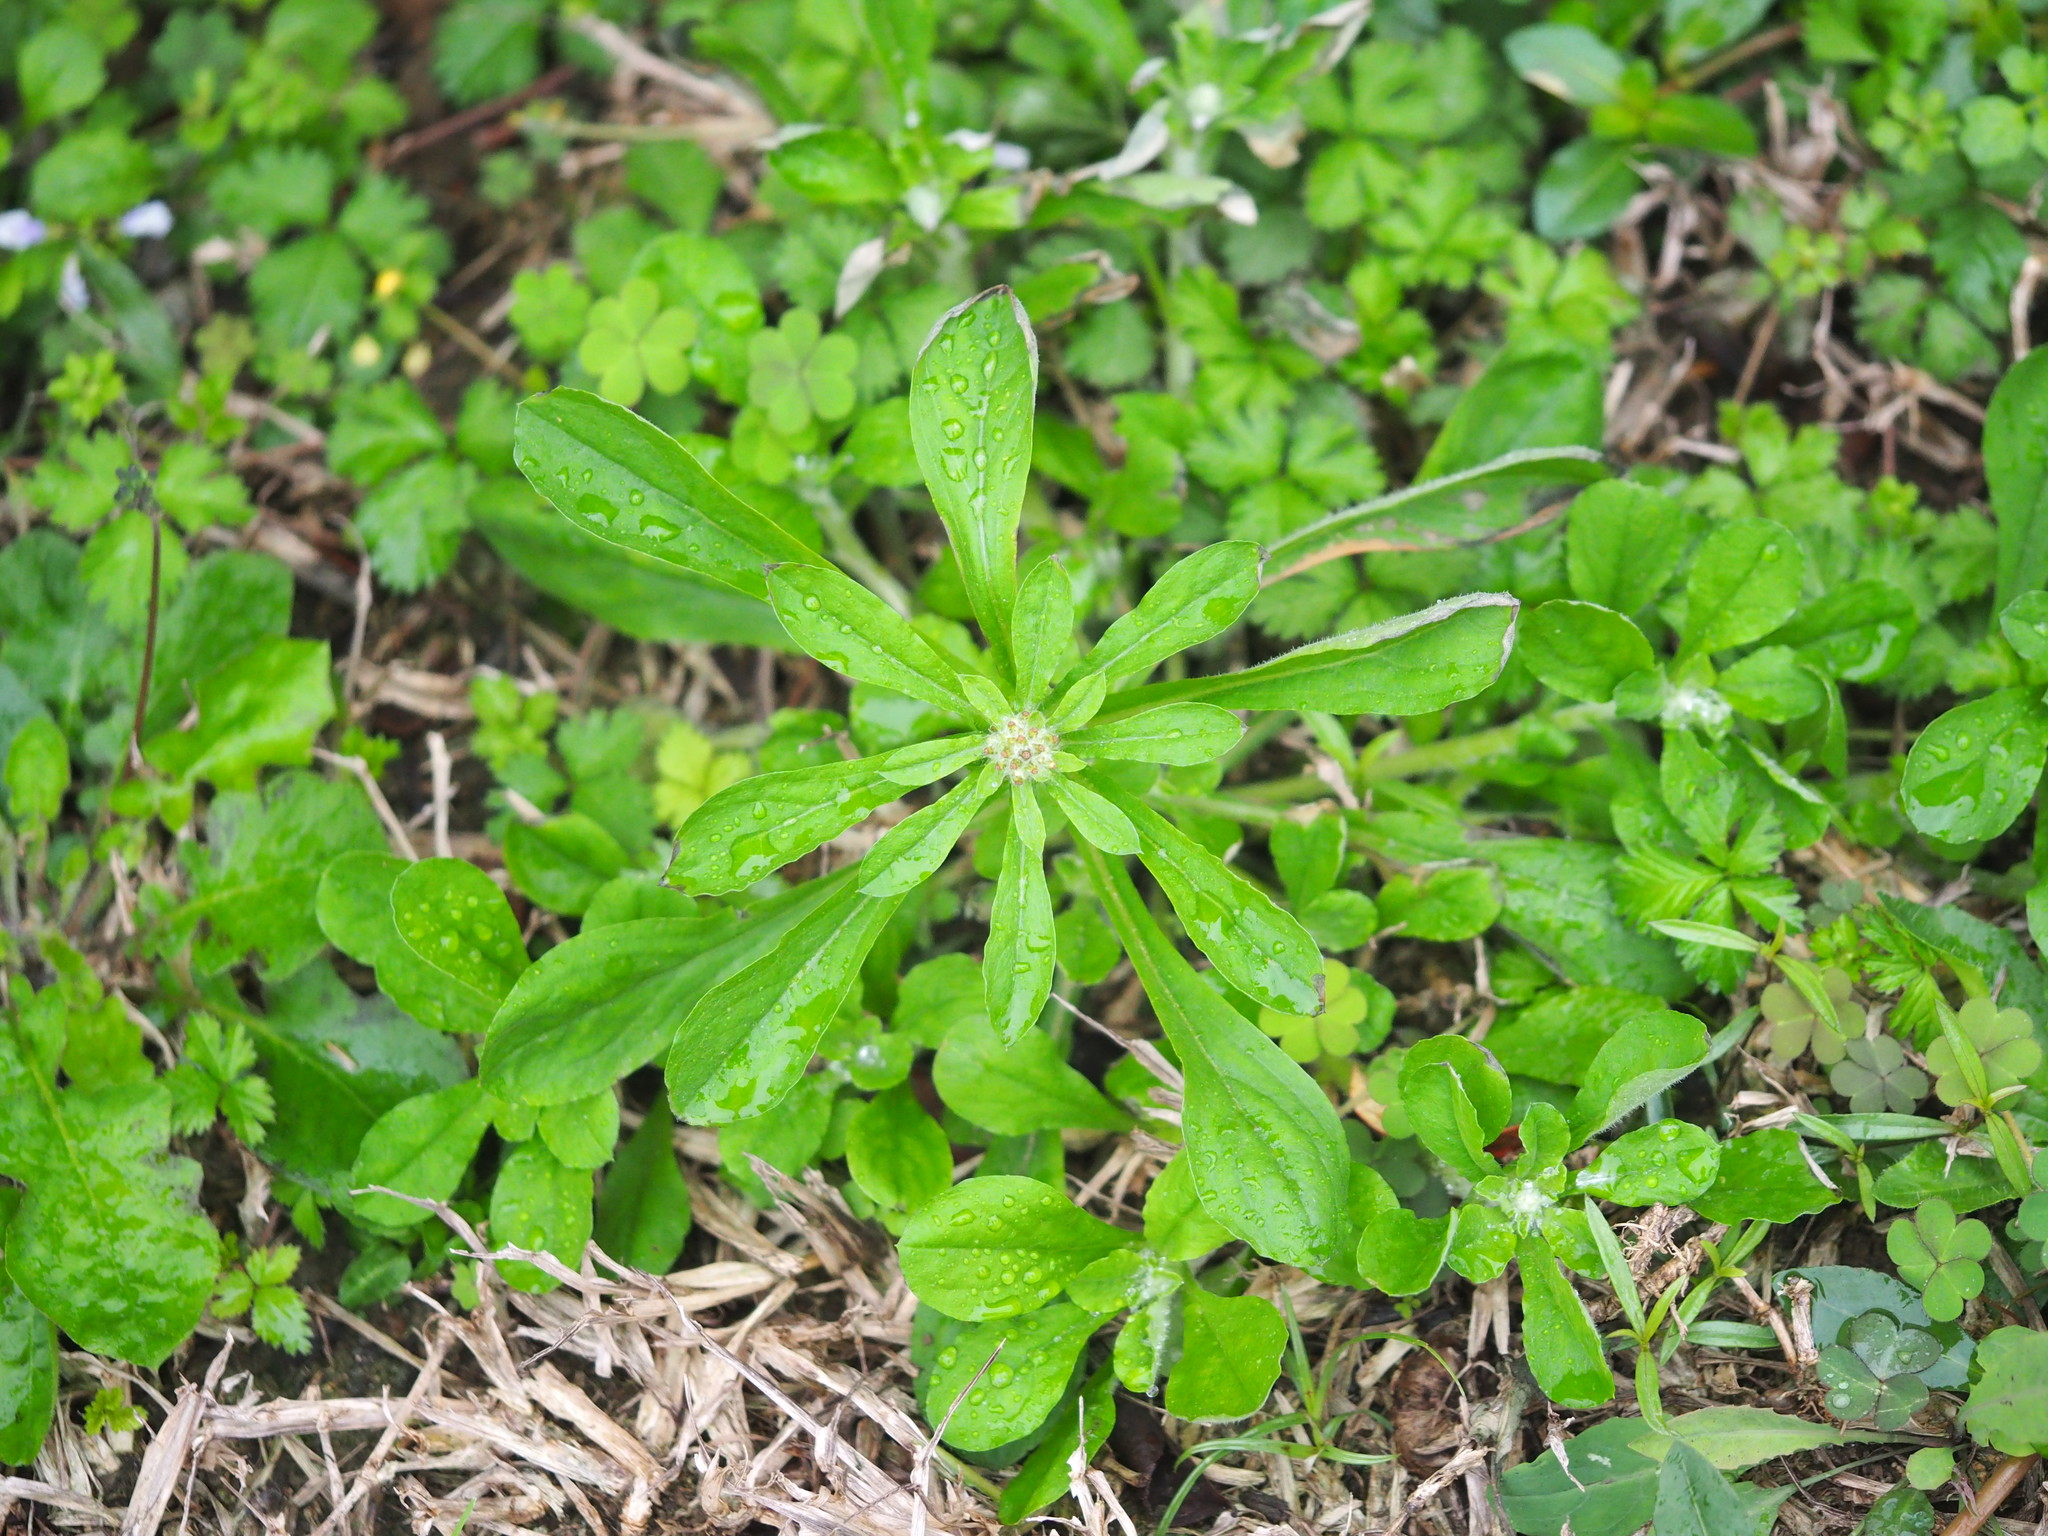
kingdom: Plantae
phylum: Tracheophyta
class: Magnoliopsida
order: Asterales
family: Asteraceae
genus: Gamochaeta
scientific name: Gamochaeta pensylvanica
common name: Pennsylvania everlasting
